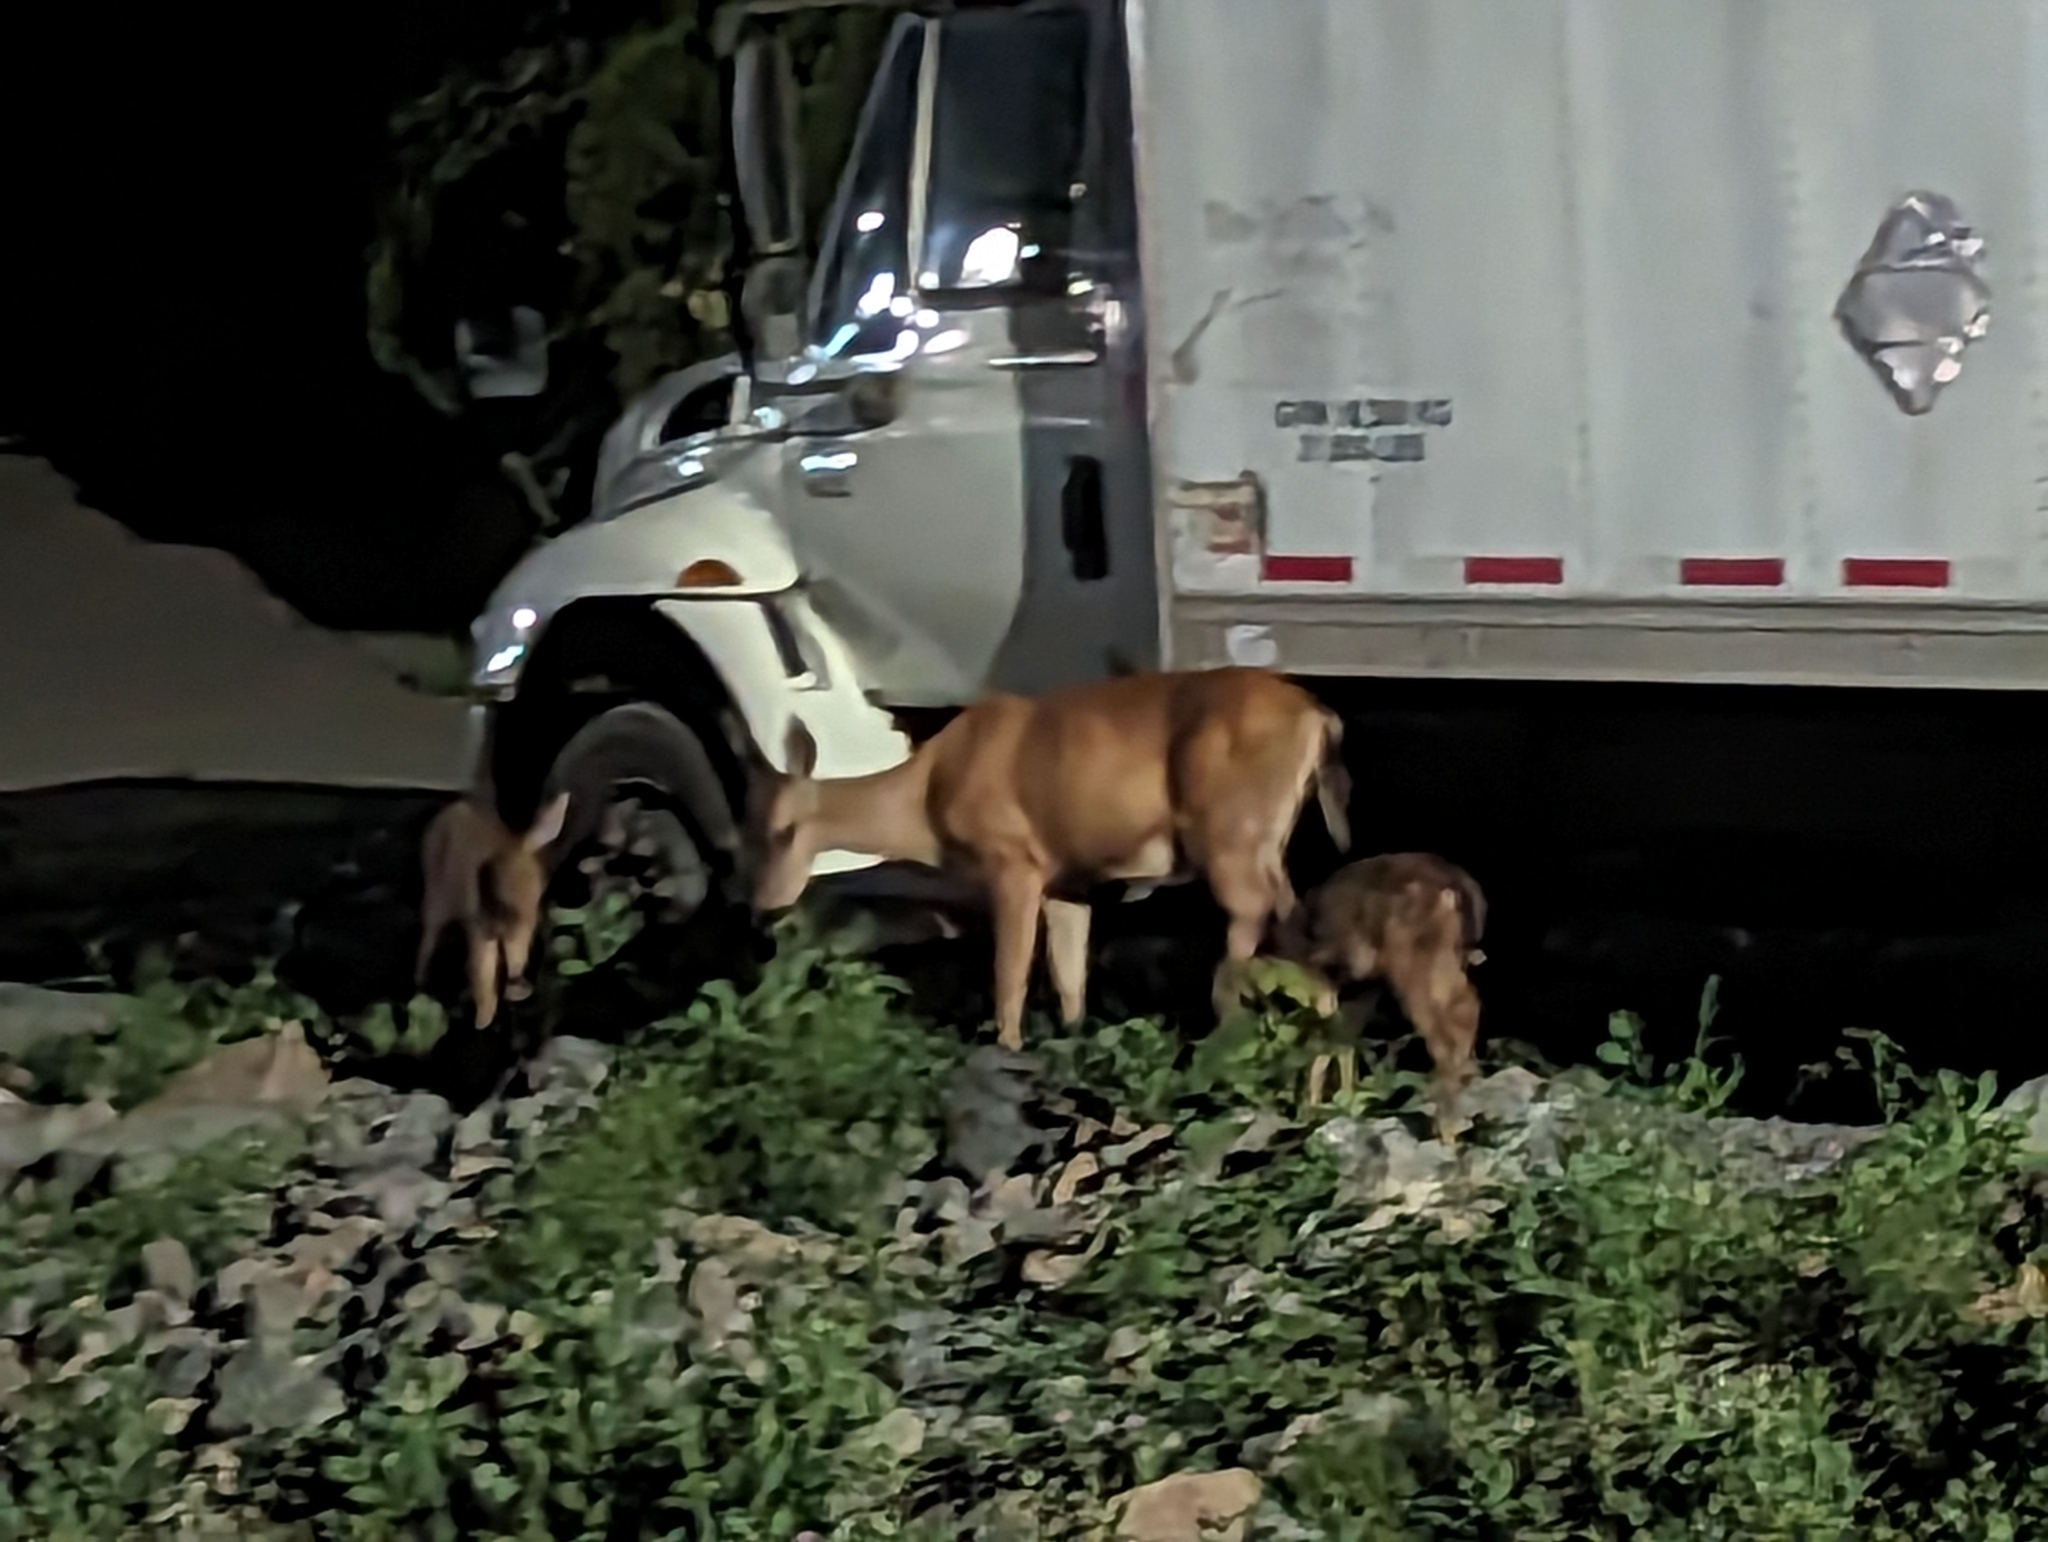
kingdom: Animalia
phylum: Chordata
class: Mammalia
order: Artiodactyla
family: Cervidae
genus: Odocoileus
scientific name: Odocoileus hemionus
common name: Mule deer
